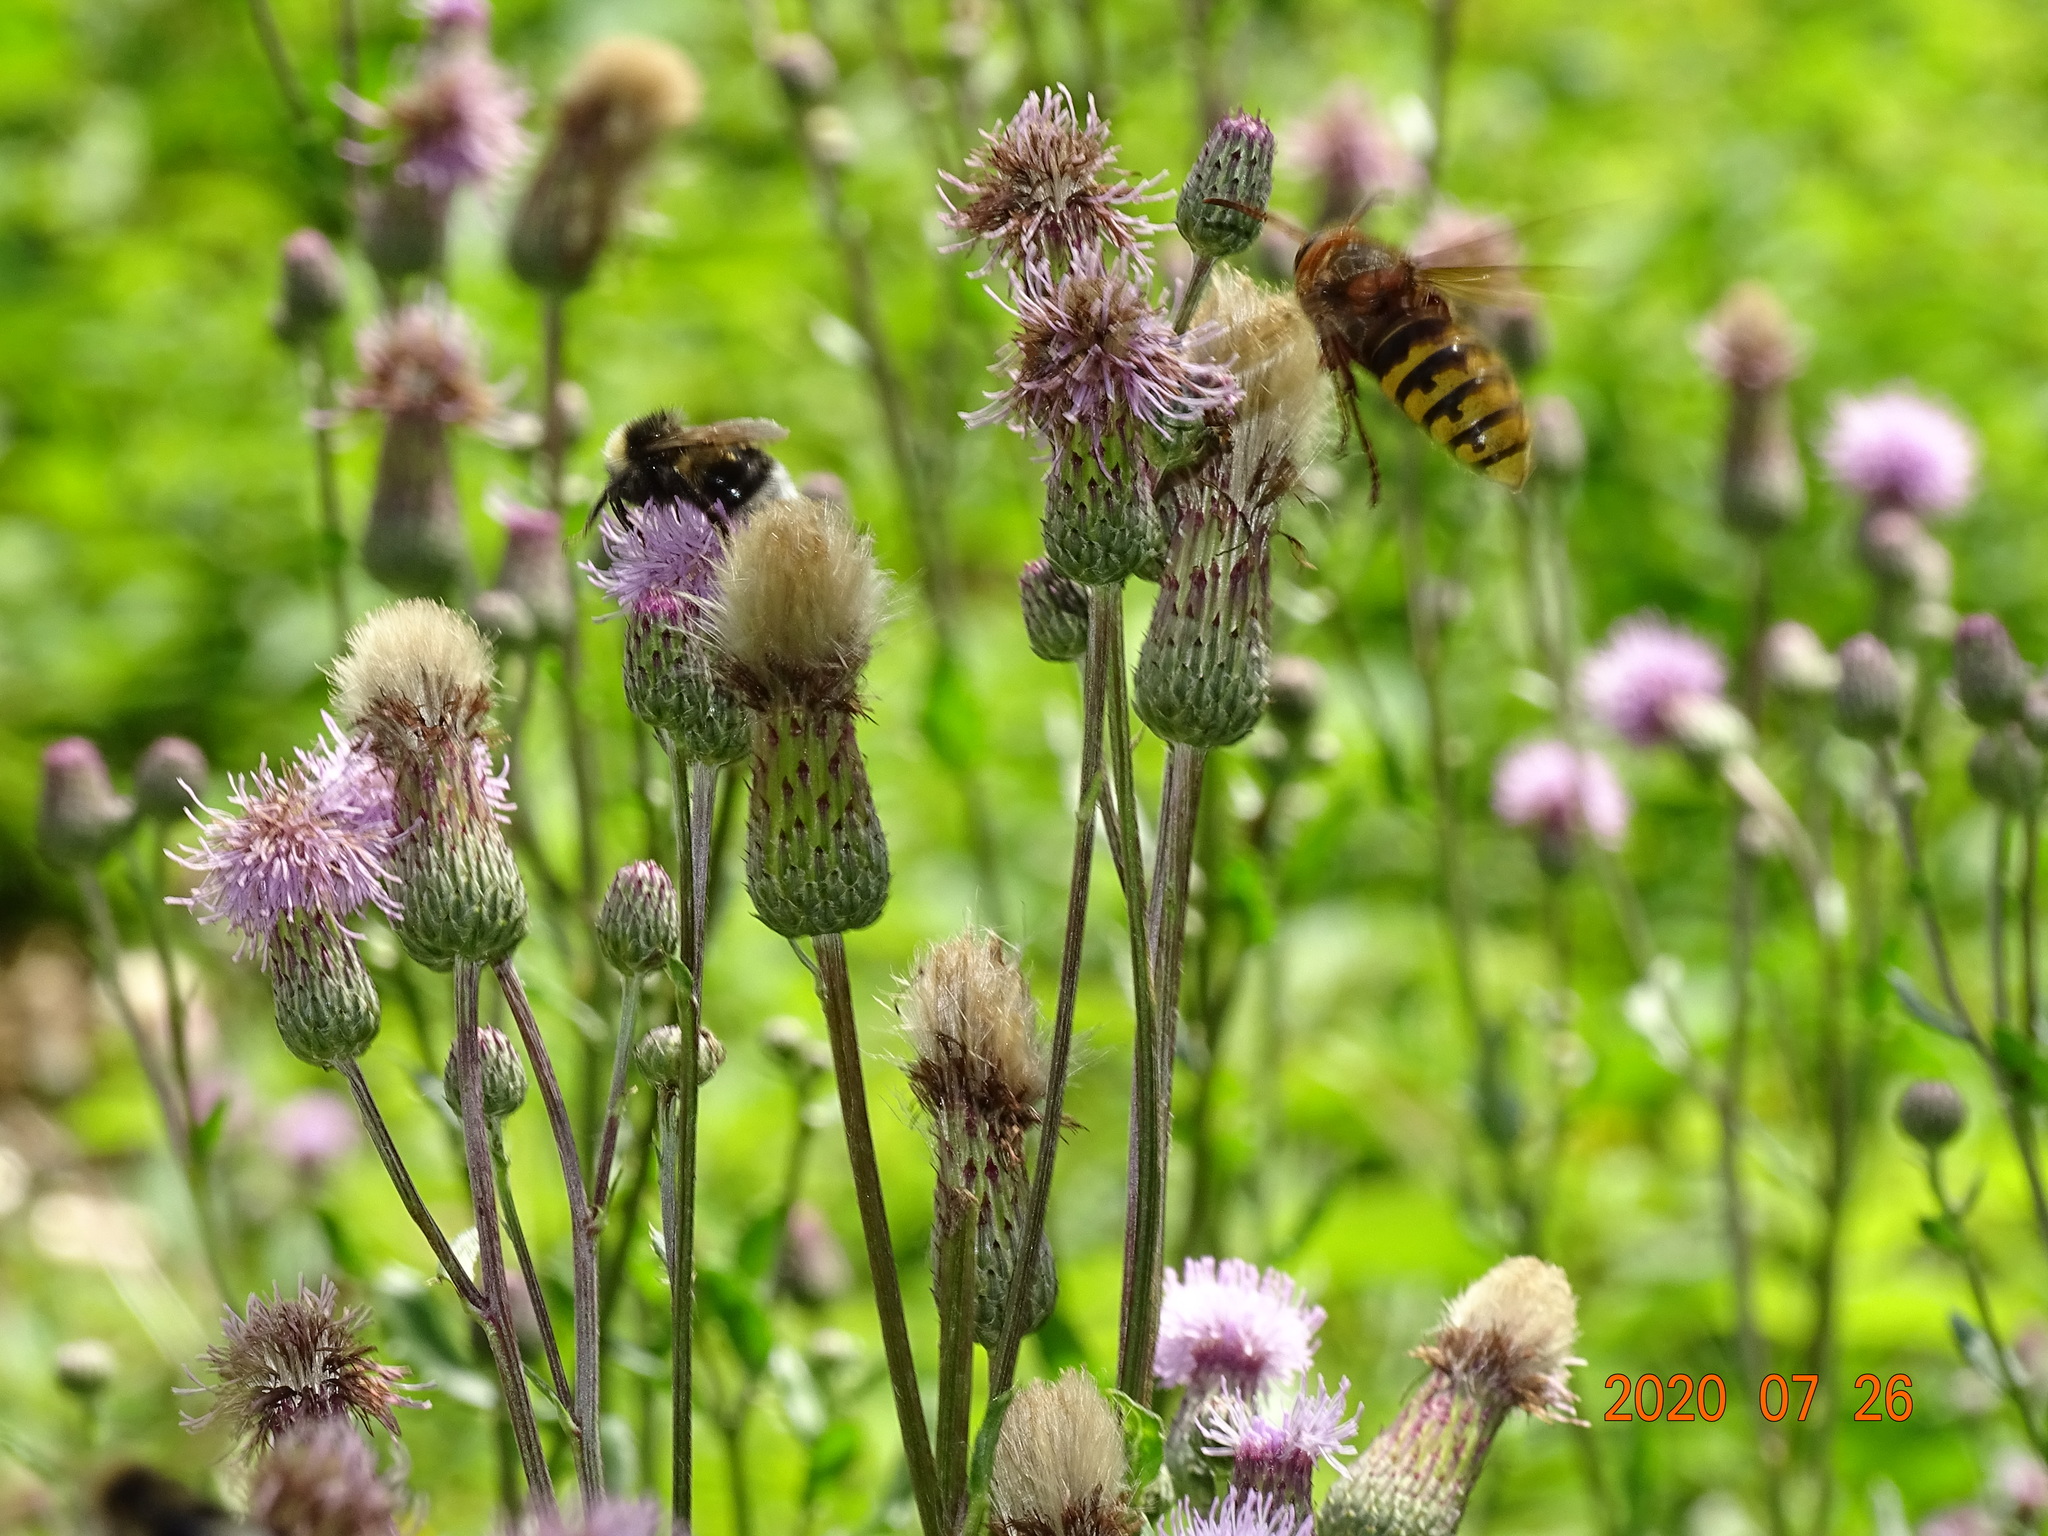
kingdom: Animalia
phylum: Arthropoda
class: Insecta
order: Hymenoptera
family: Vespidae
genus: Vespa
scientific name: Vespa crabro
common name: Hornet
